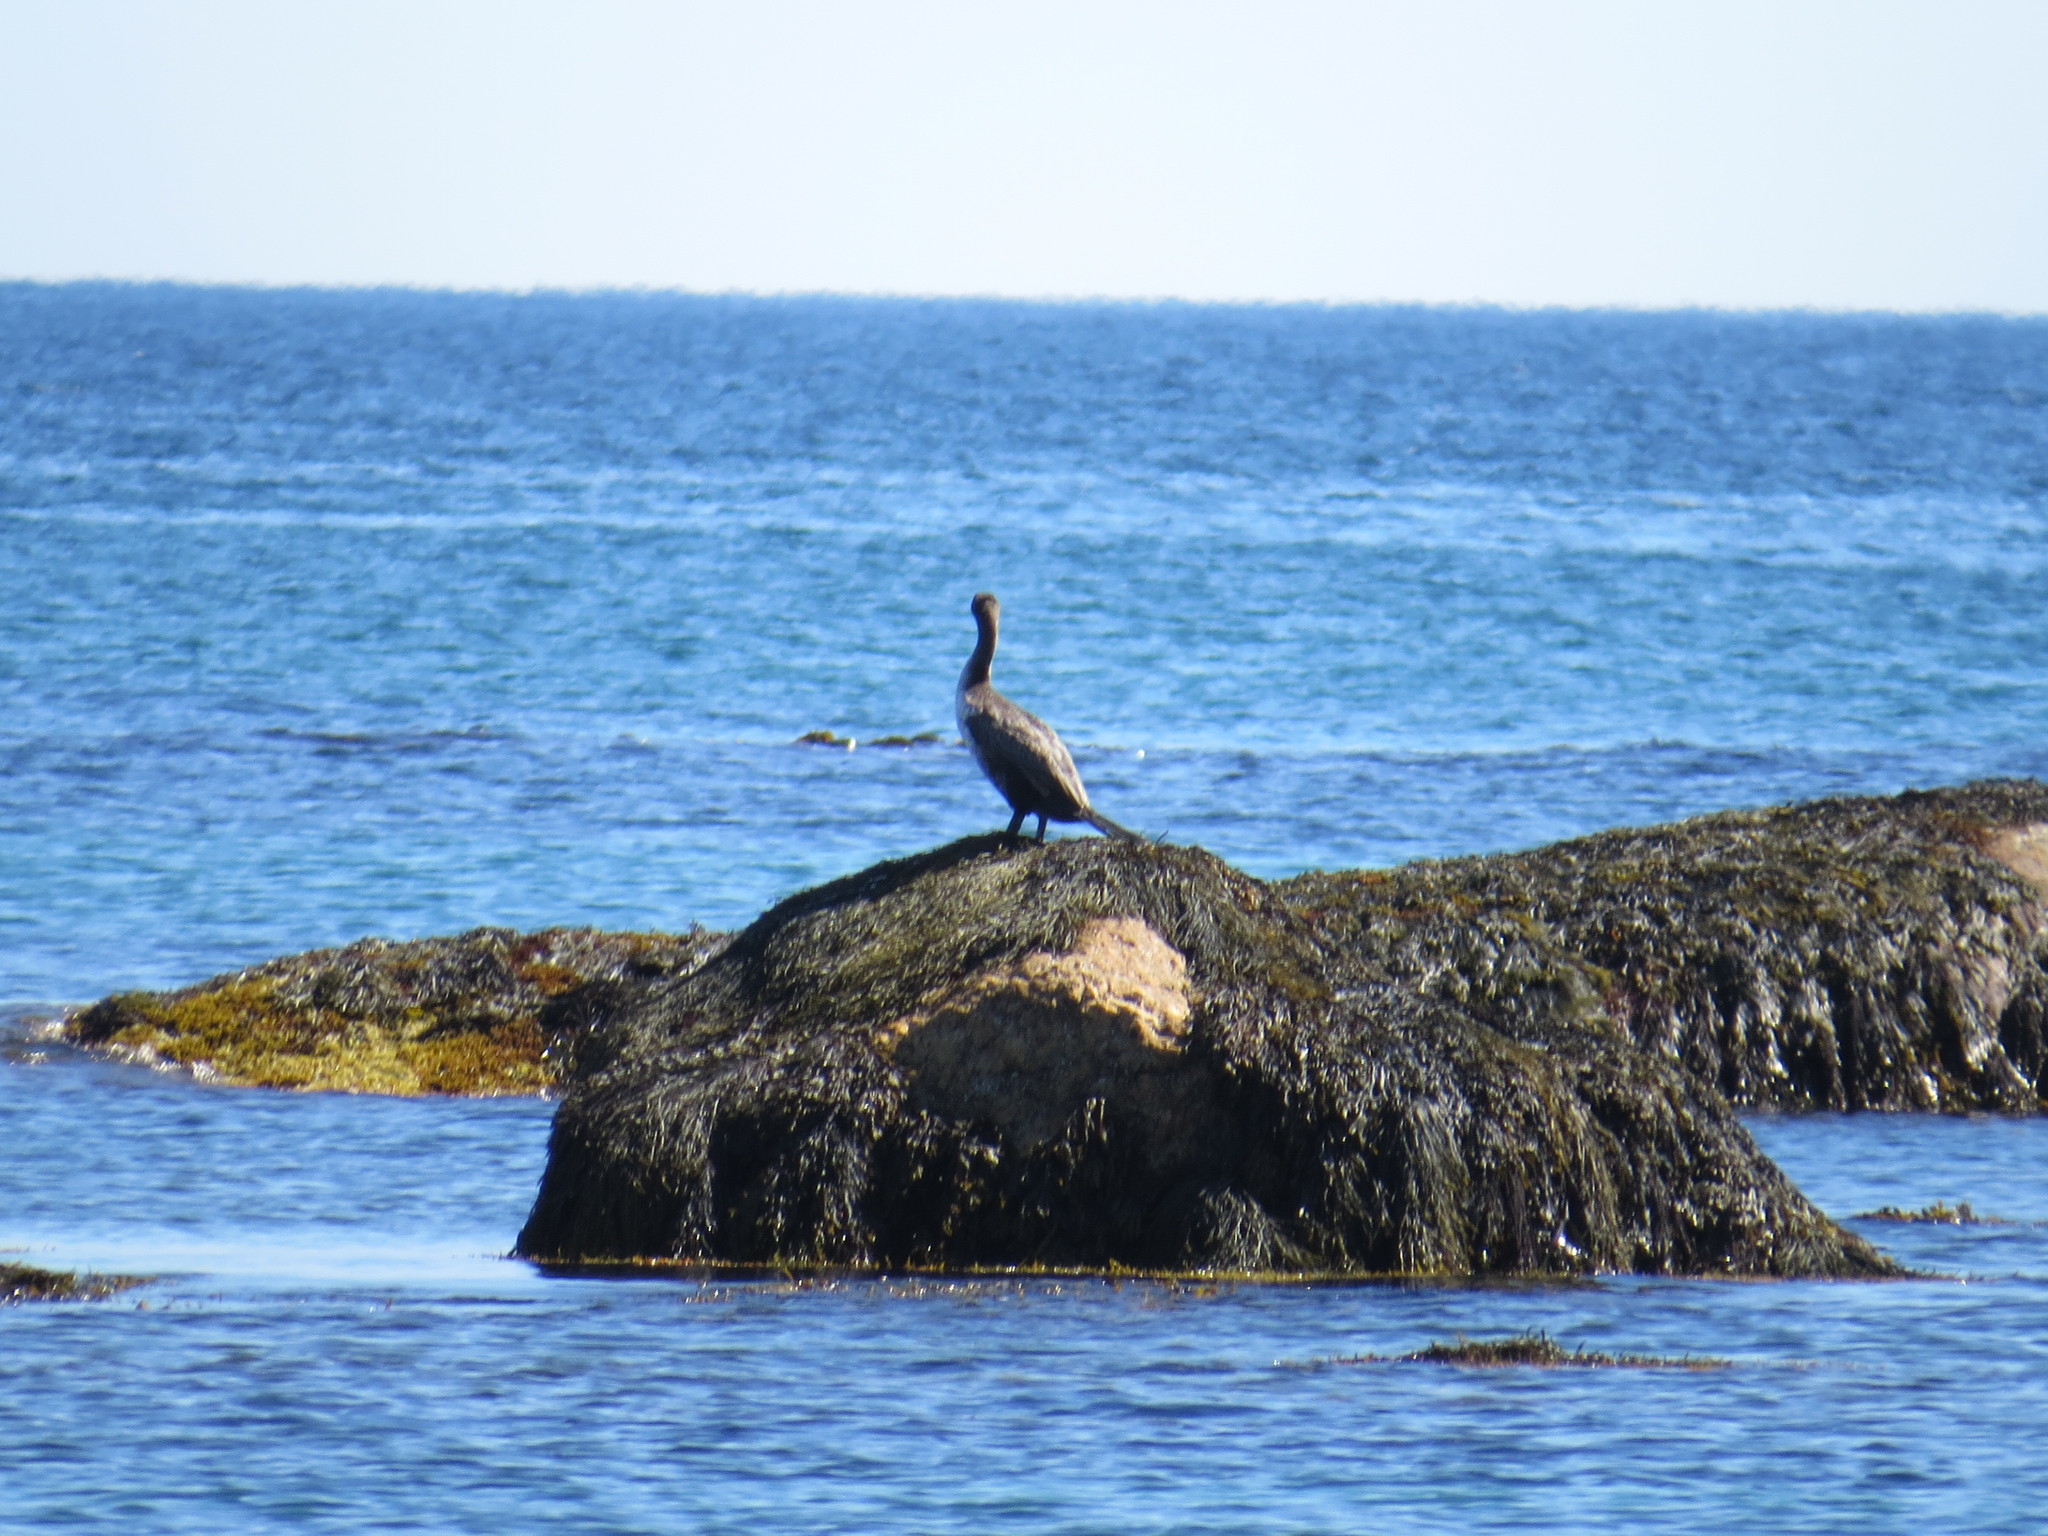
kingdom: Animalia
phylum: Chordata
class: Aves
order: Suliformes
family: Phalacrocoracidae
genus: Phalacrocorax
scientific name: Phalacrocorax carbo
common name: Great cormorant
